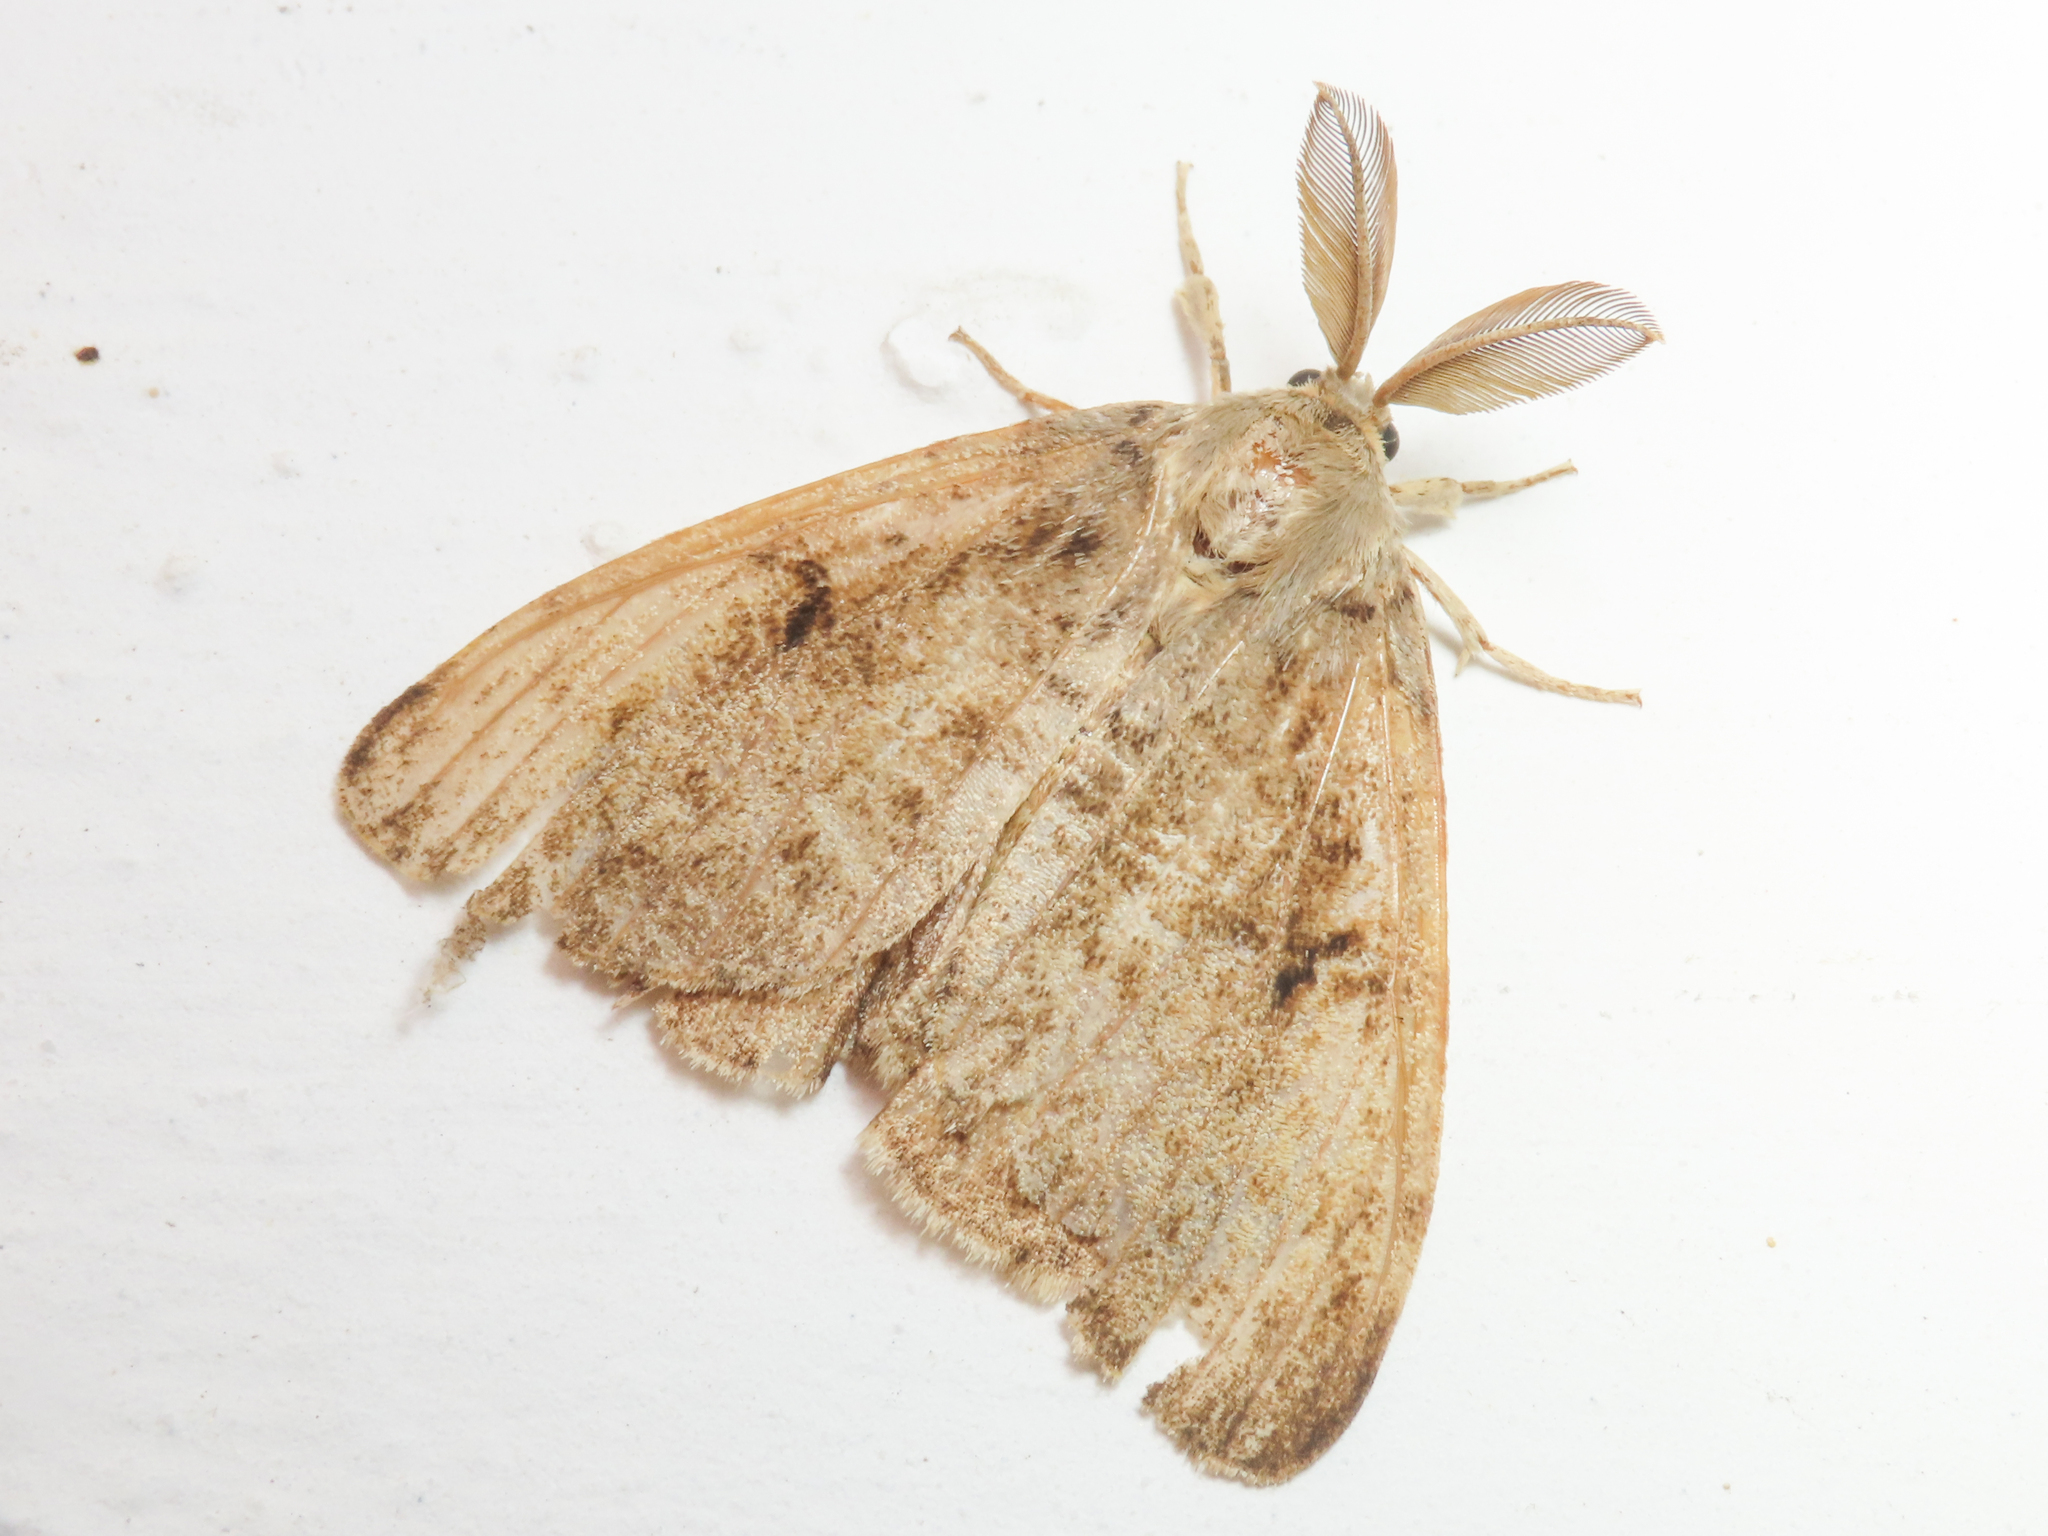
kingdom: Animalia
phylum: Arthropoda
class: Insecta
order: Lepidoptera
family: Erebidae
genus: Lymantria
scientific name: Lymantria dispar
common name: Gypsy moth
